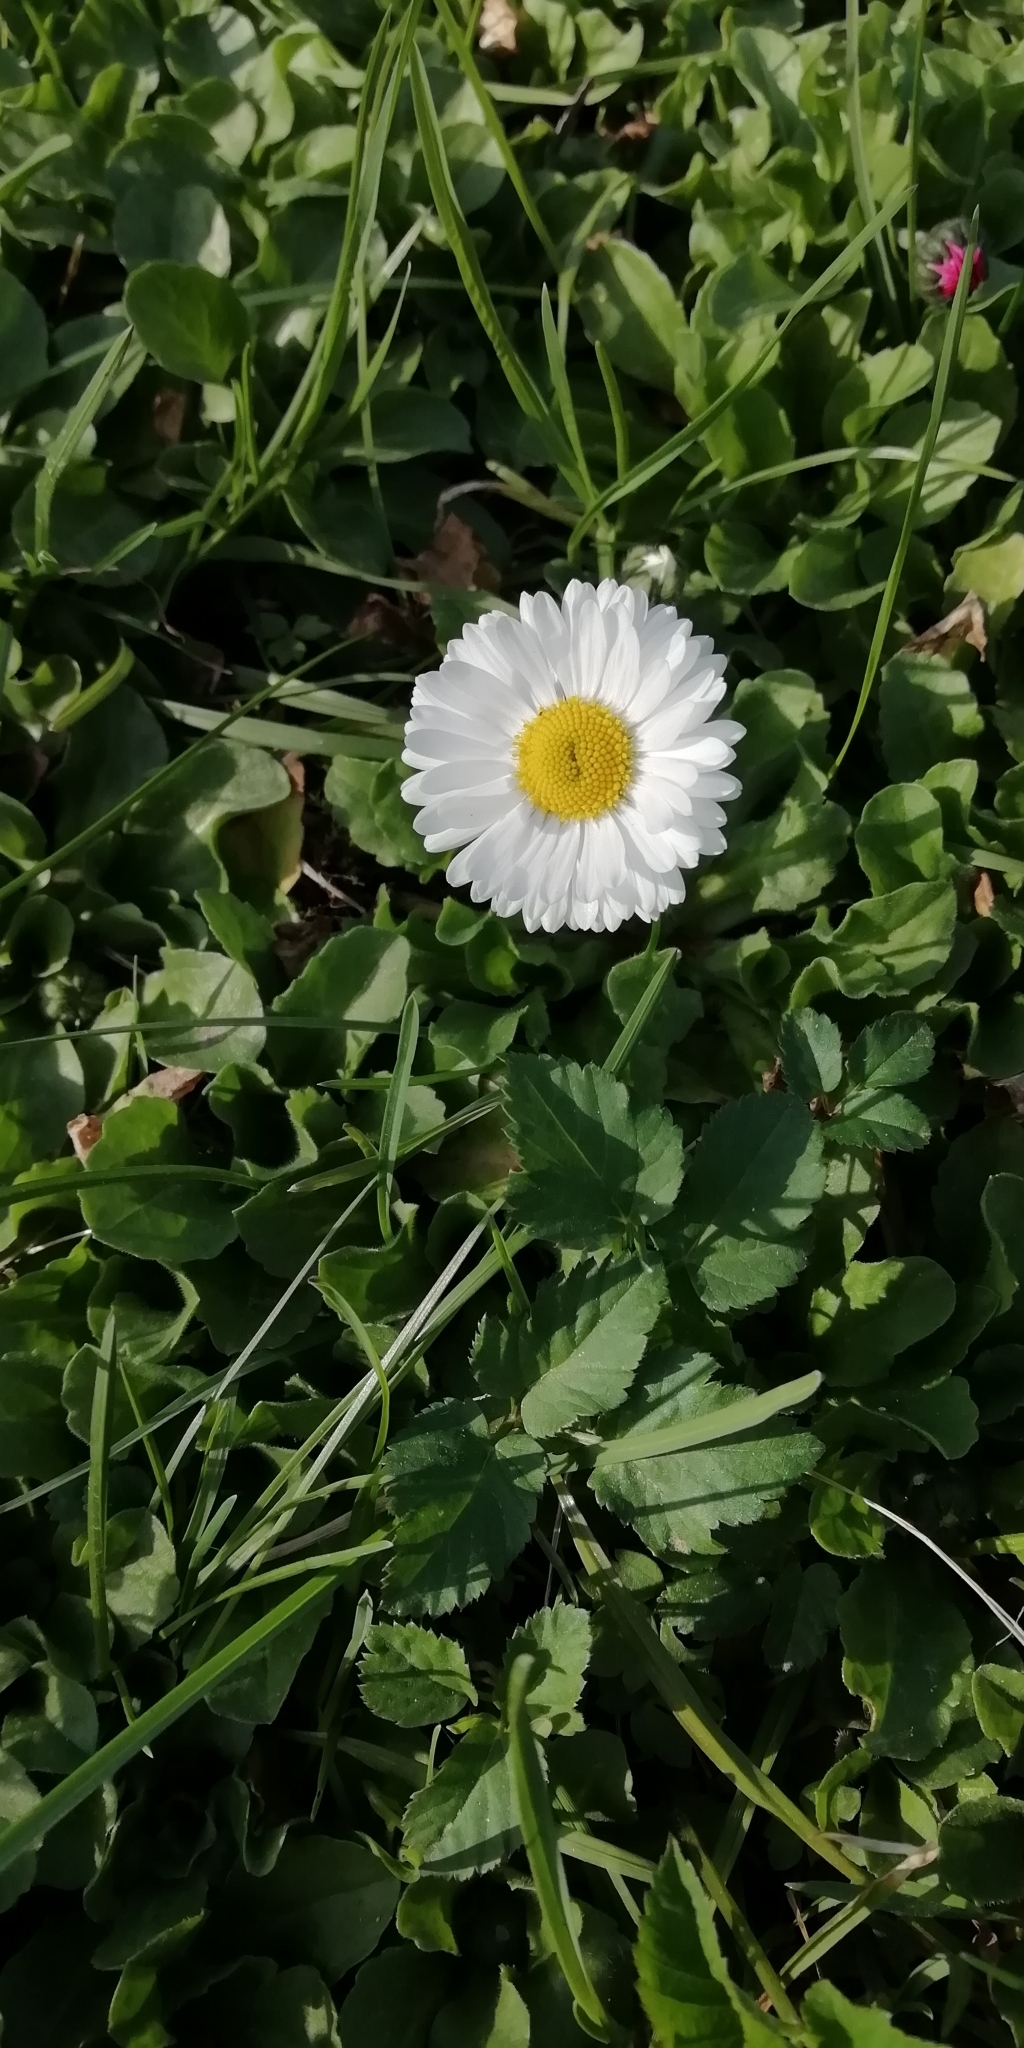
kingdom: Plantae
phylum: Tracheophyta
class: Magnoliopsida
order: Asterales
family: Asteraceae
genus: Bellis
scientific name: Bellis perennis
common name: Lawndaisy
